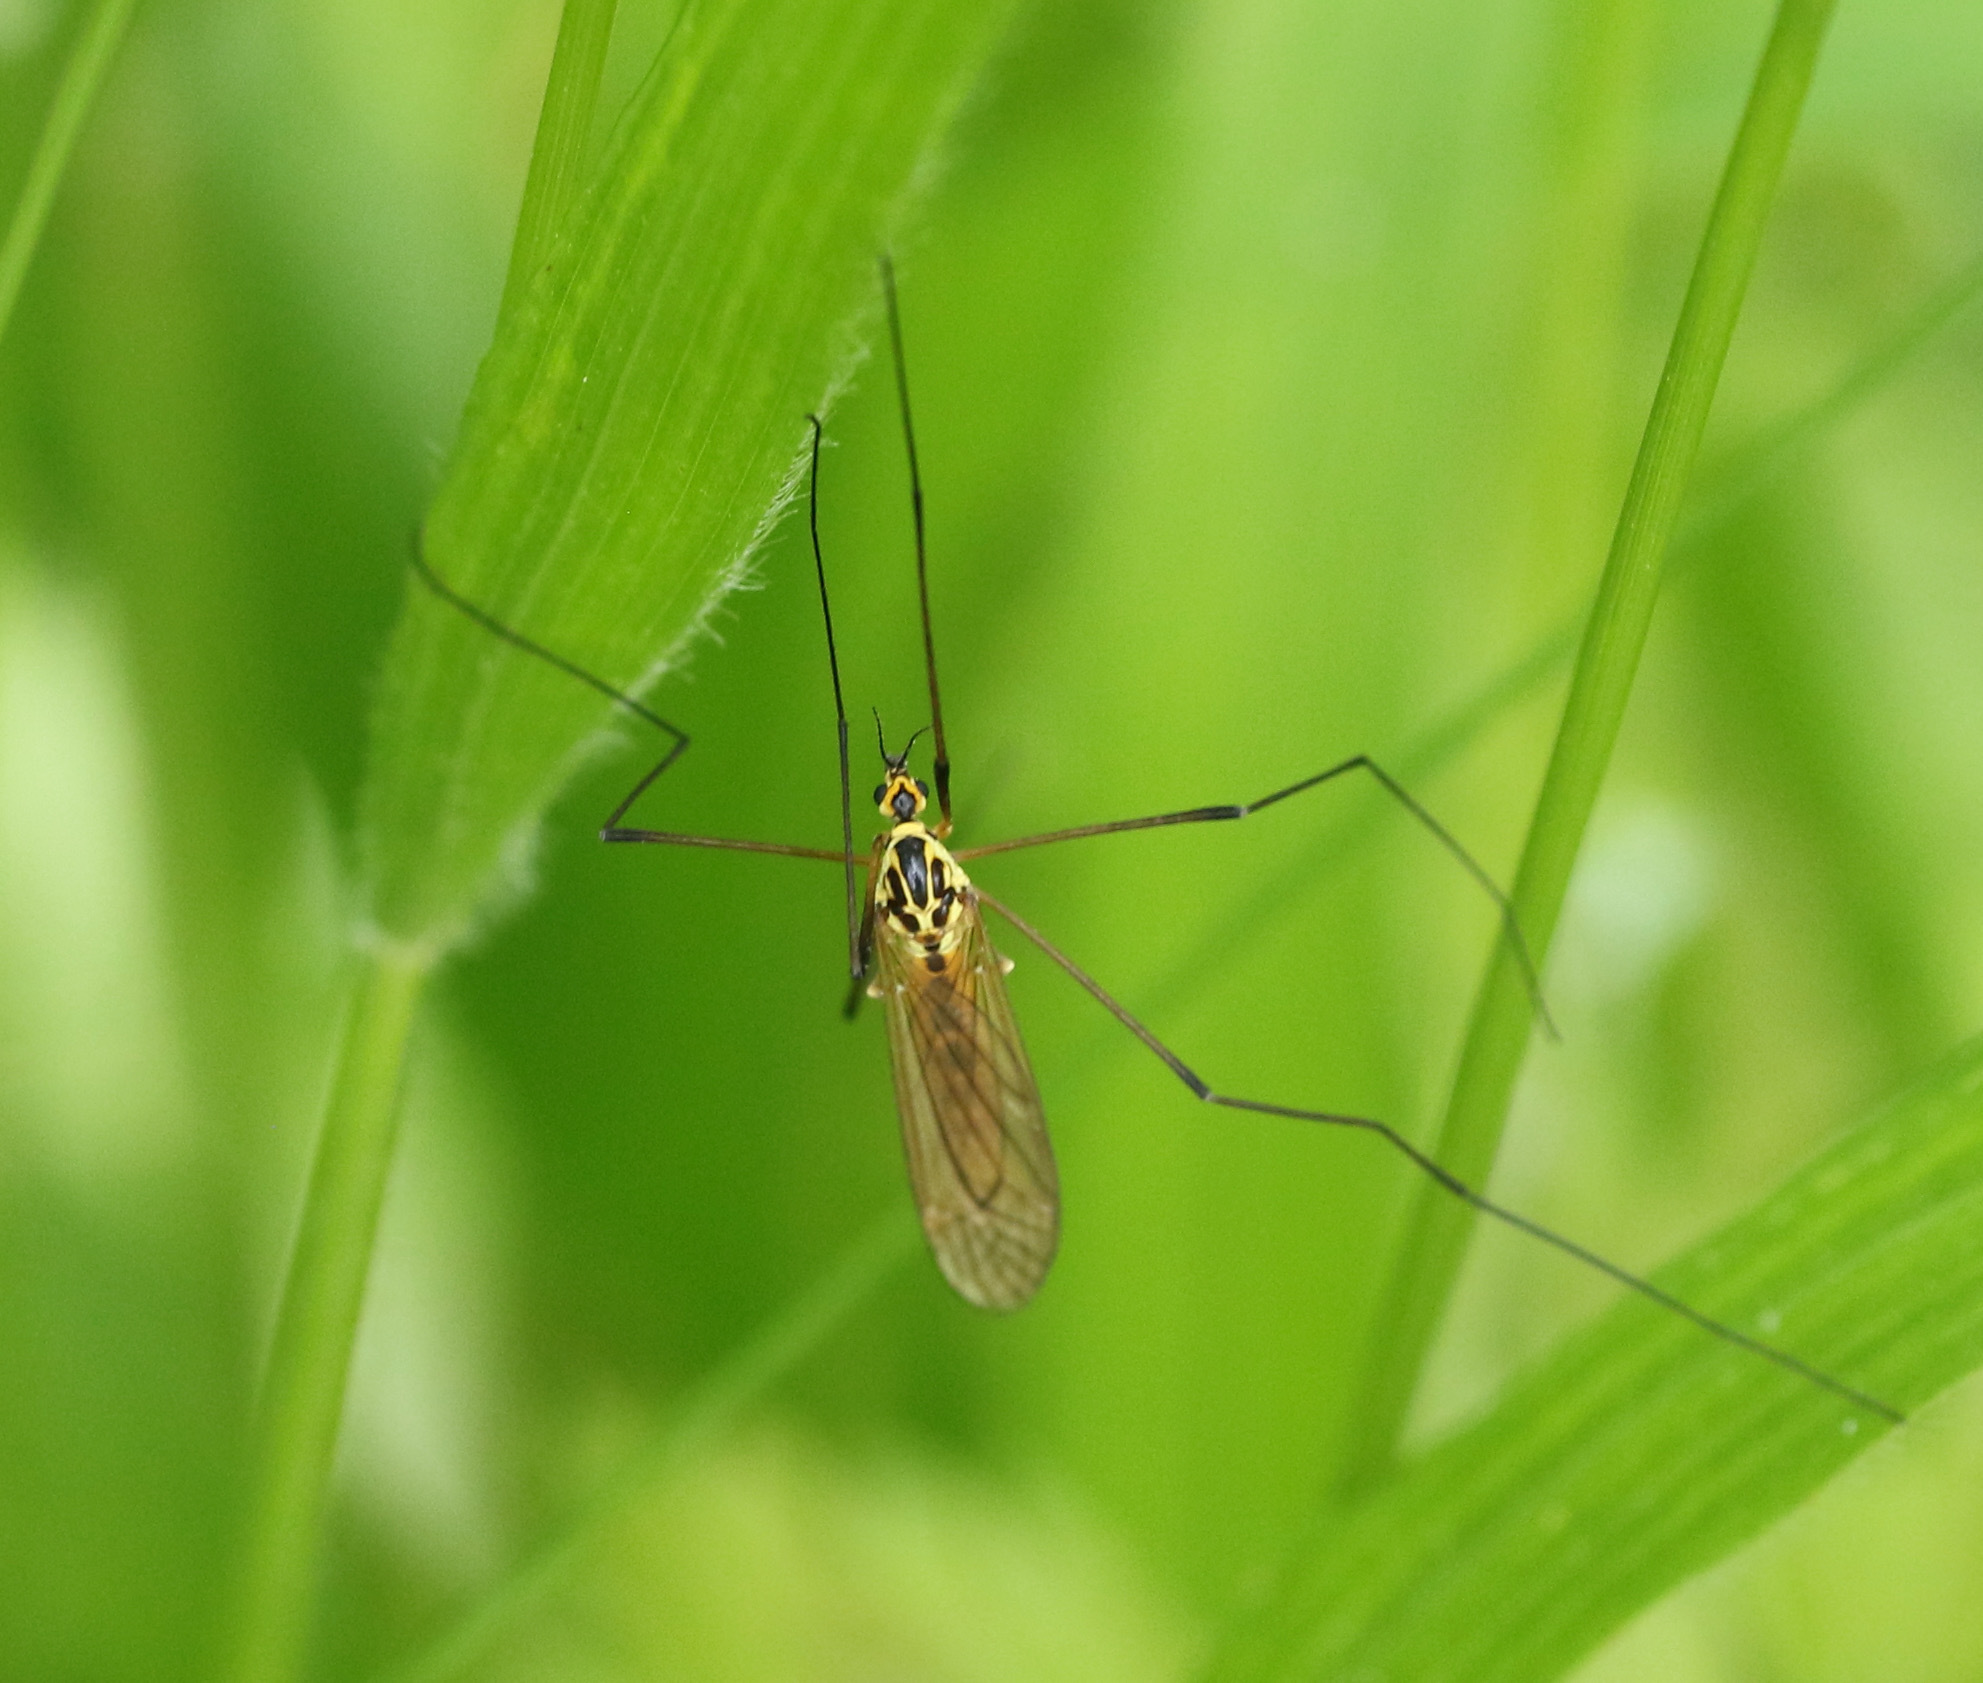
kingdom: Animalia
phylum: Arthropoda
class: Insecta
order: Diptera
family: Tipulidae
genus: Nephrotoma
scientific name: Nephrotoma flavescens
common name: Tiger cranefly
